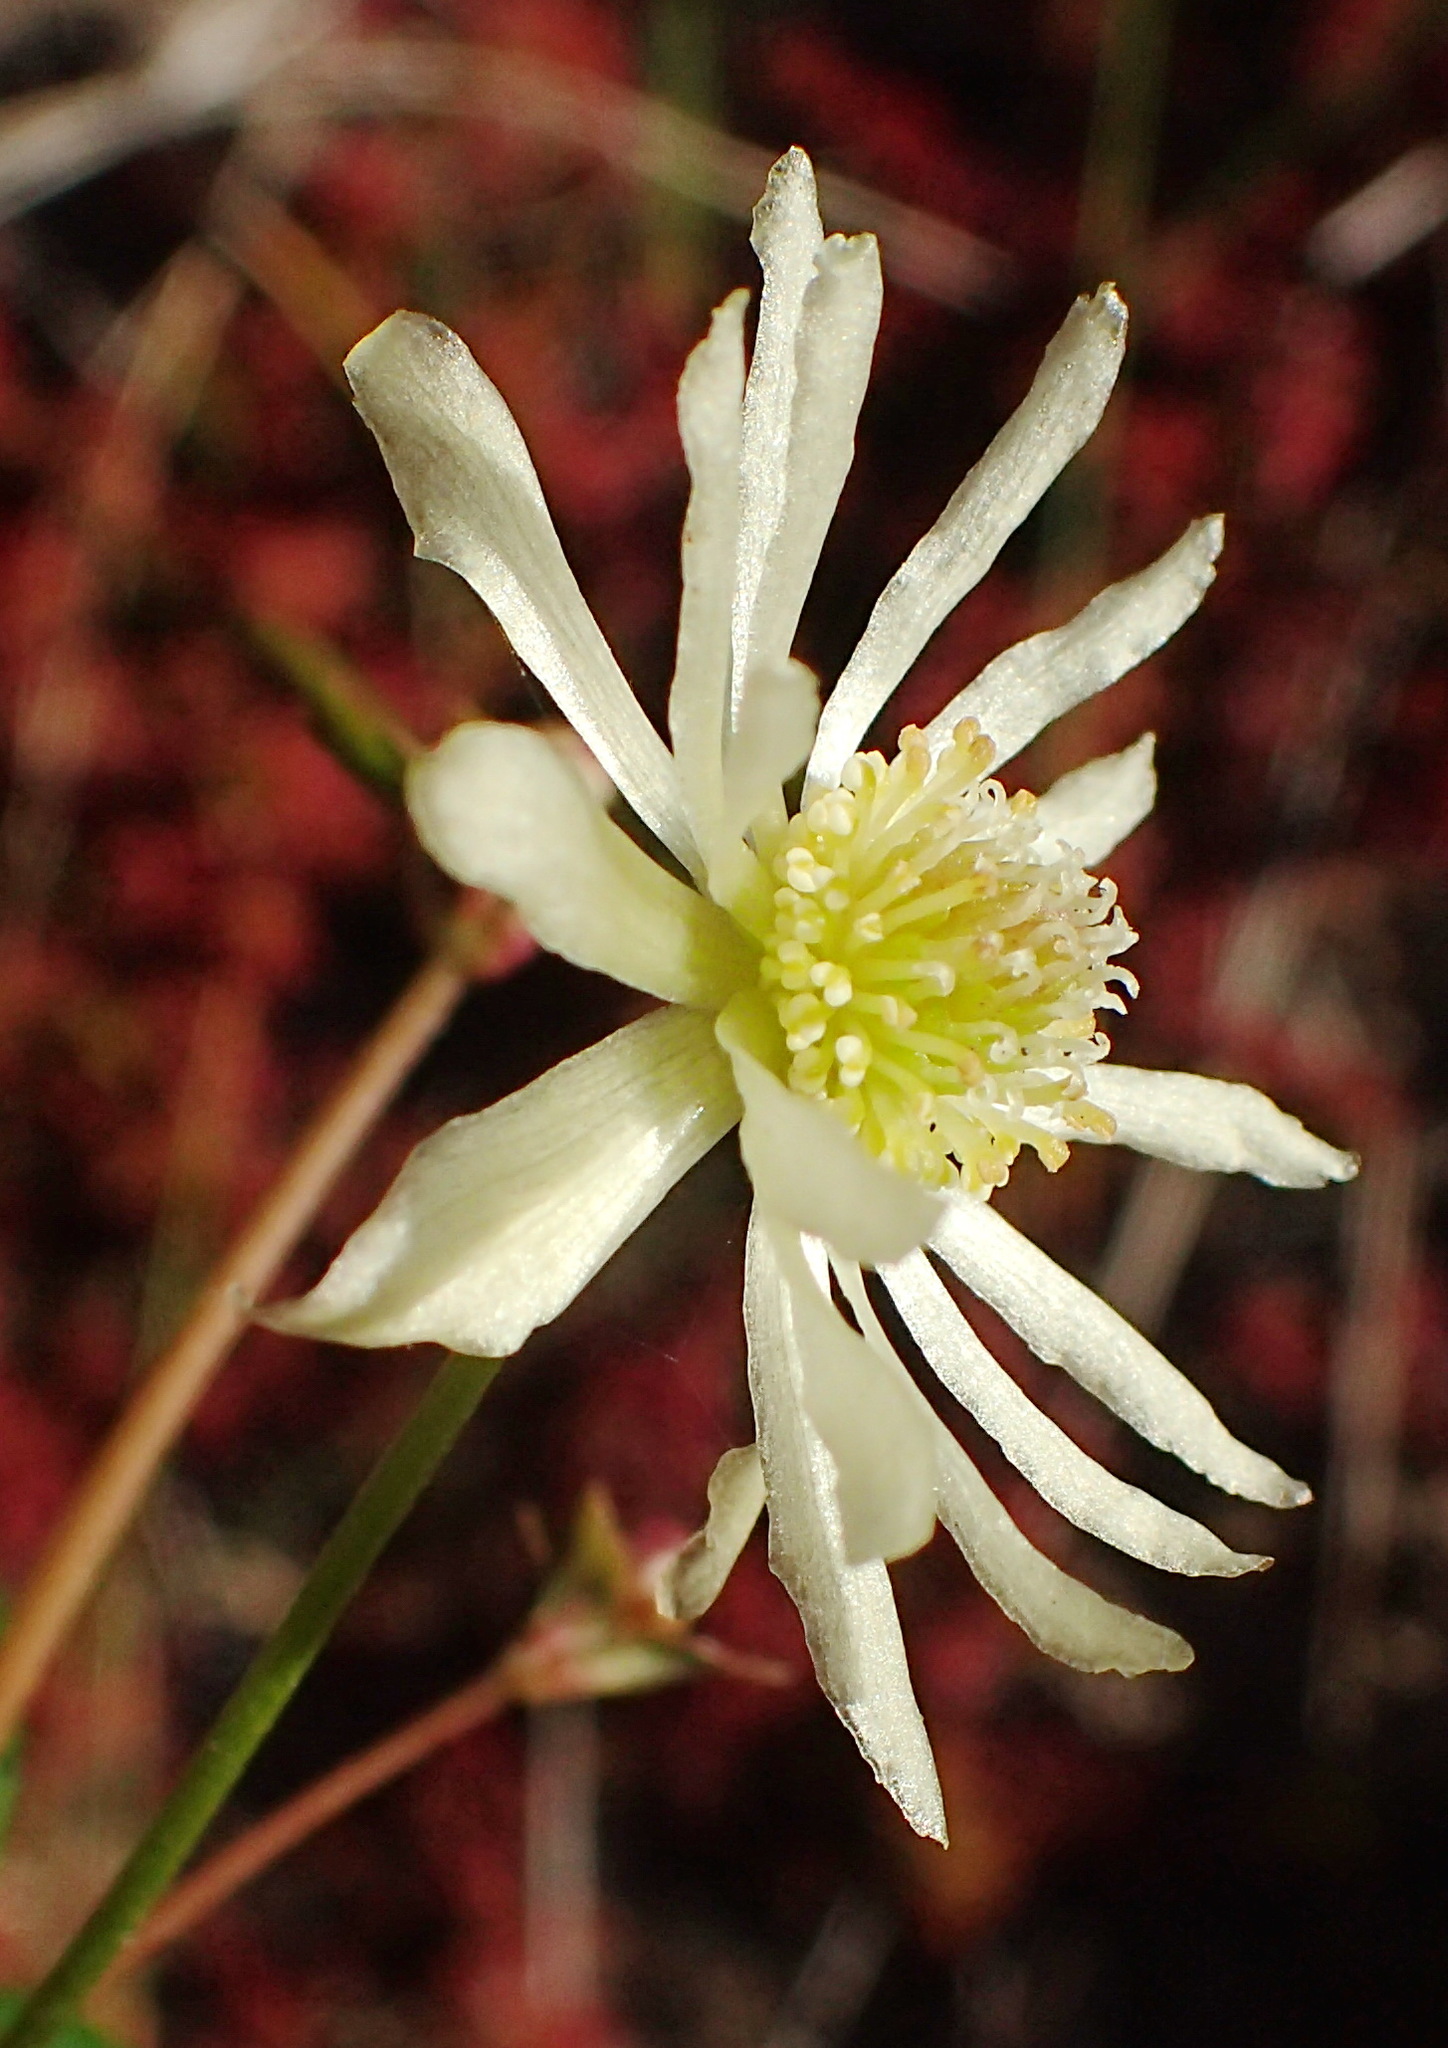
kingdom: Plantae
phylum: Tracheophyta
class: Magnoliopsida
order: Ranunculales
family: Ranunculaceae
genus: Knowltonia
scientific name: Knowltonia vesicatoria
